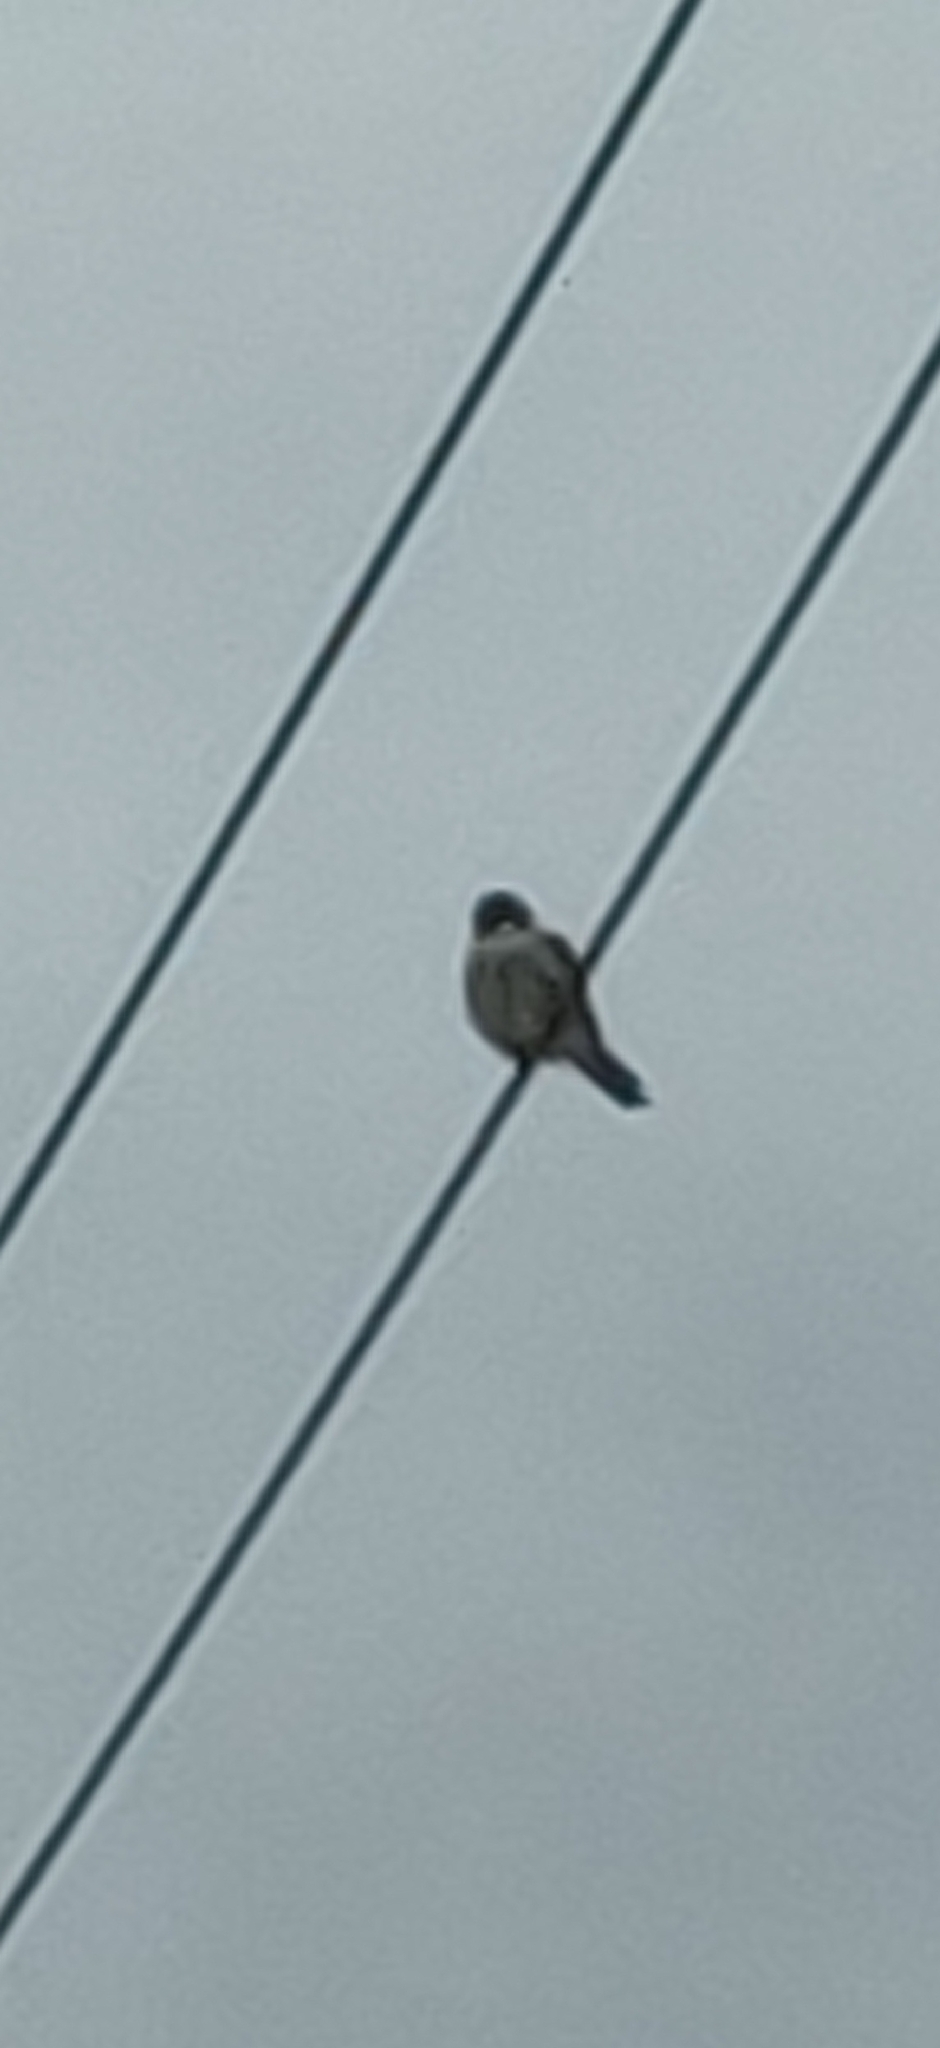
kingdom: Animalia
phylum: Chordata
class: Aves
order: Falconiformes
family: Falconidae
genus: Falco
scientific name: Falco sparverius
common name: American kestrel
